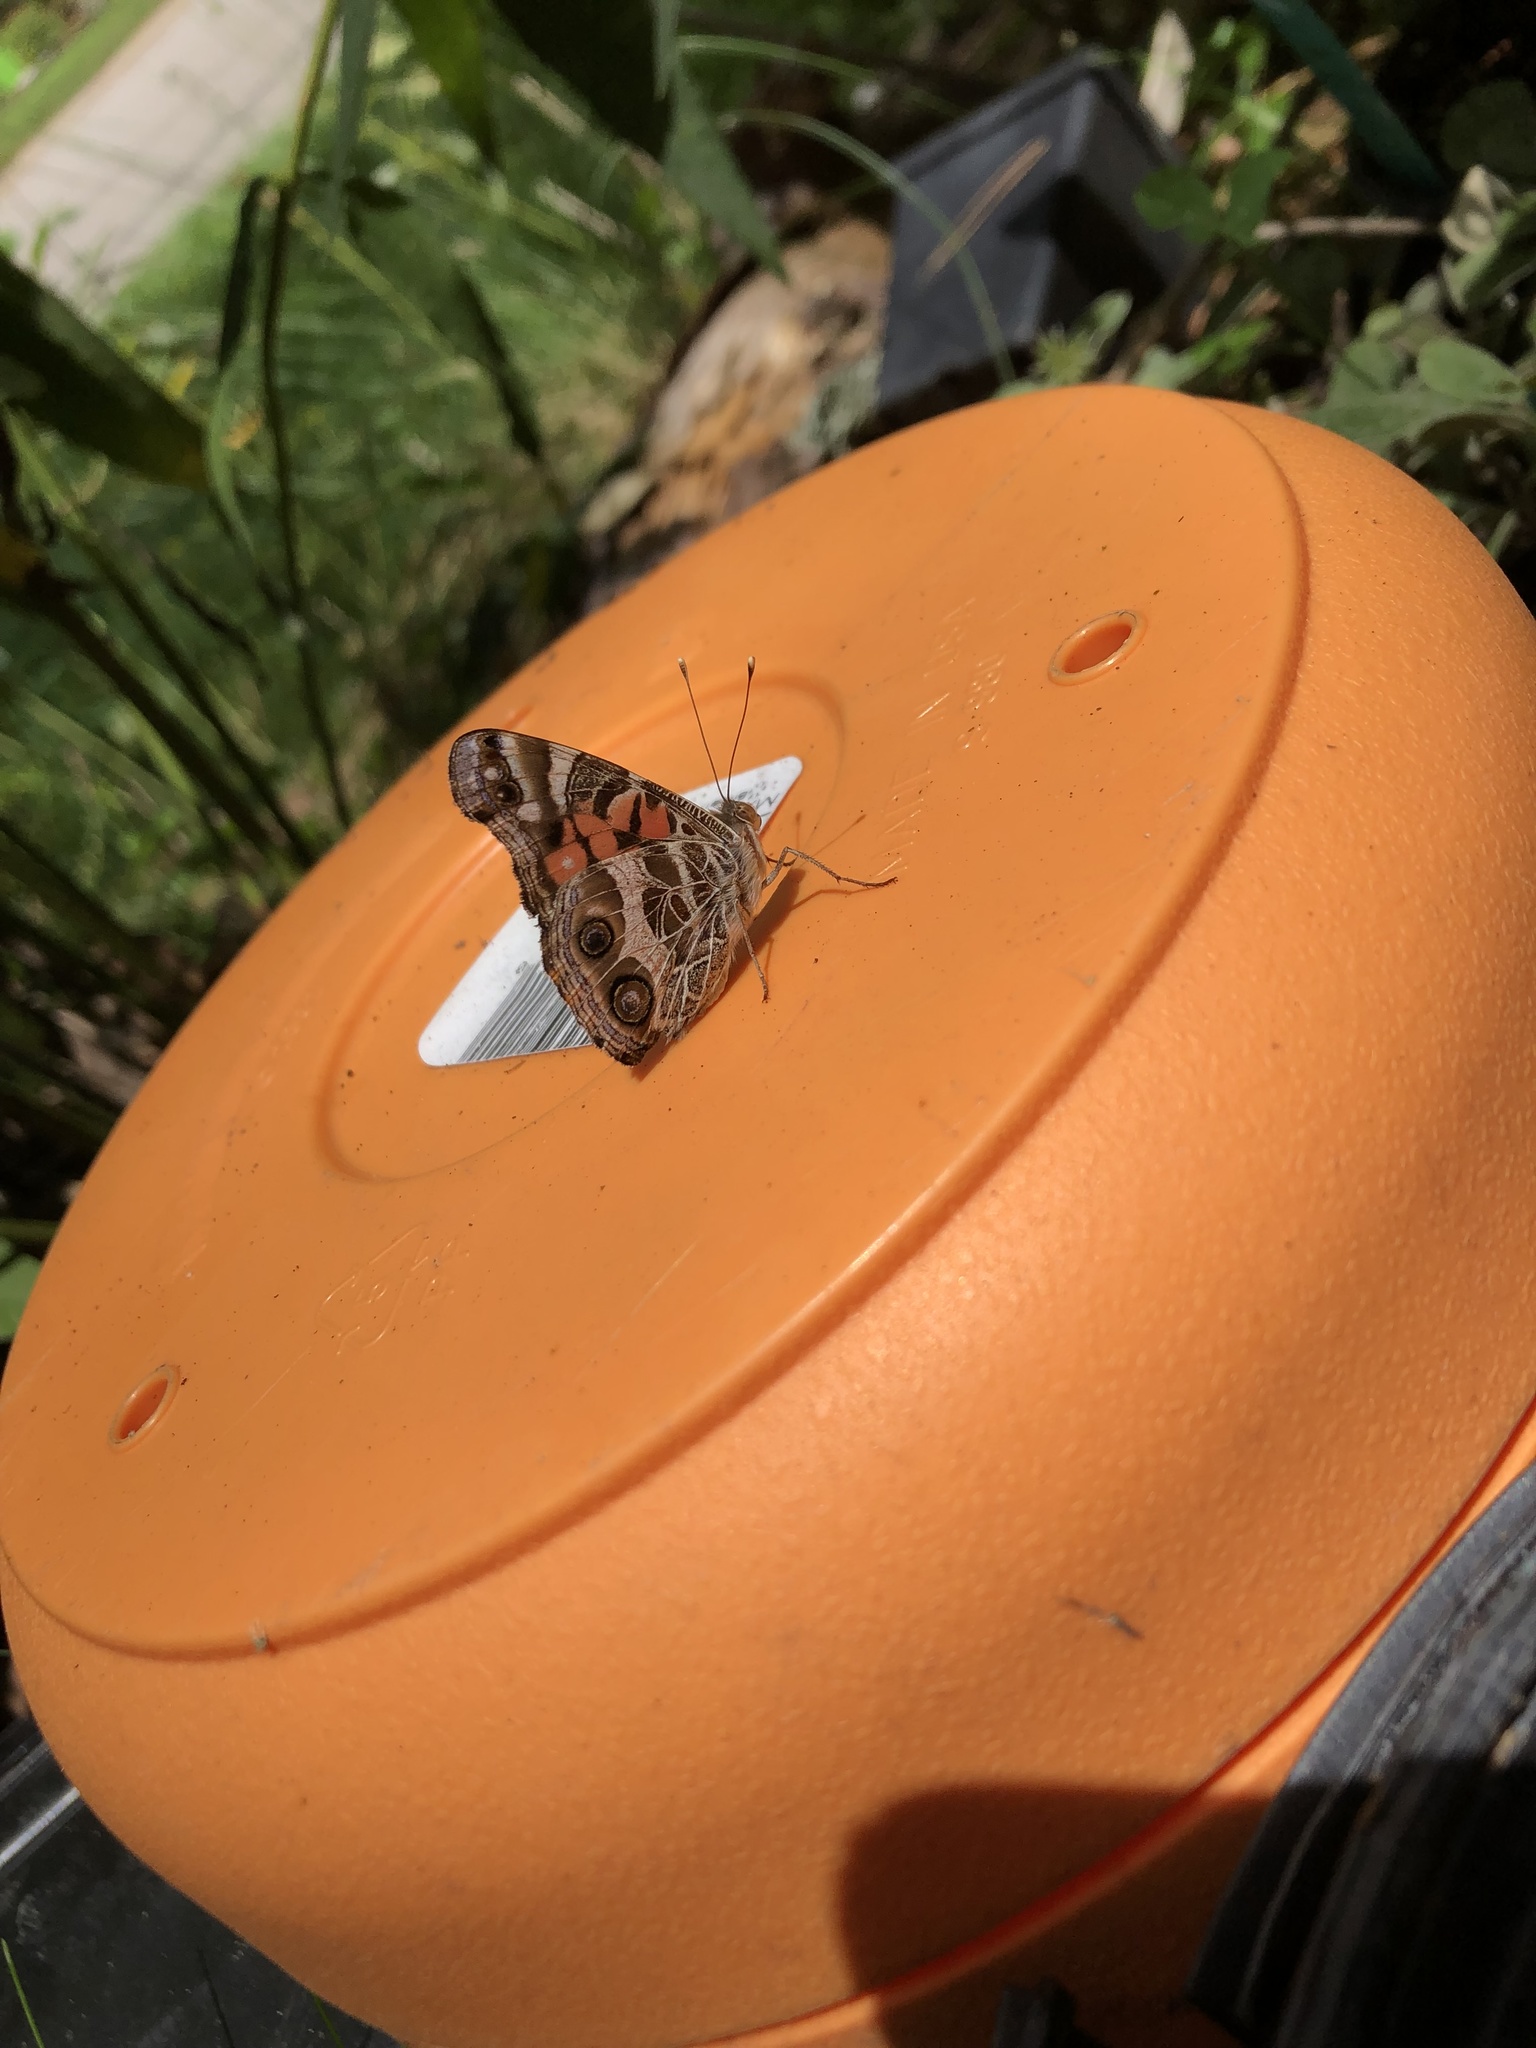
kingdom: Animalia
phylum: Arthropoda
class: Insecta
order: Lepidoptera
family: Nymphalidae
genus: Vanessa
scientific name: Vanessa virginiensis
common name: American lady
